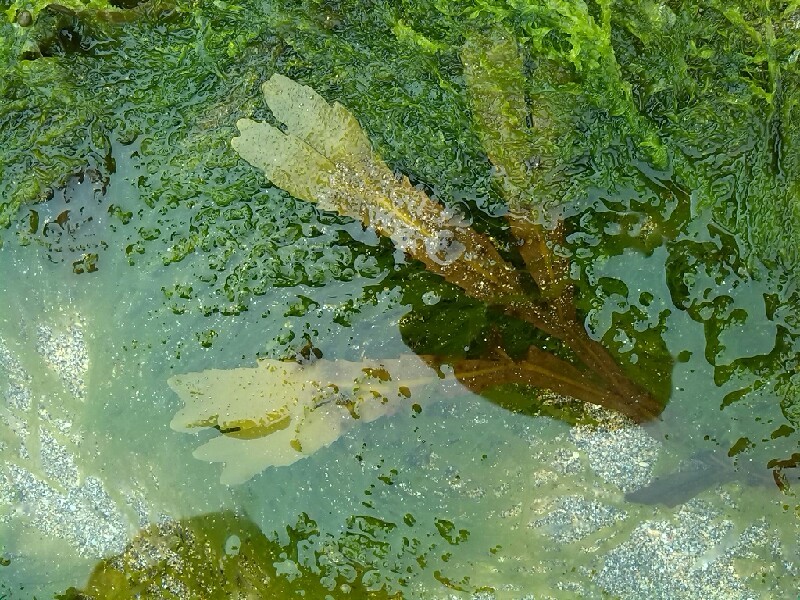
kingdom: Chromista
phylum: Ochrophyta
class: Phaeophyceae
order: Fucales
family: Fucaceae
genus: Fucus
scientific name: Fucus serratus
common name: Toothed wrack
